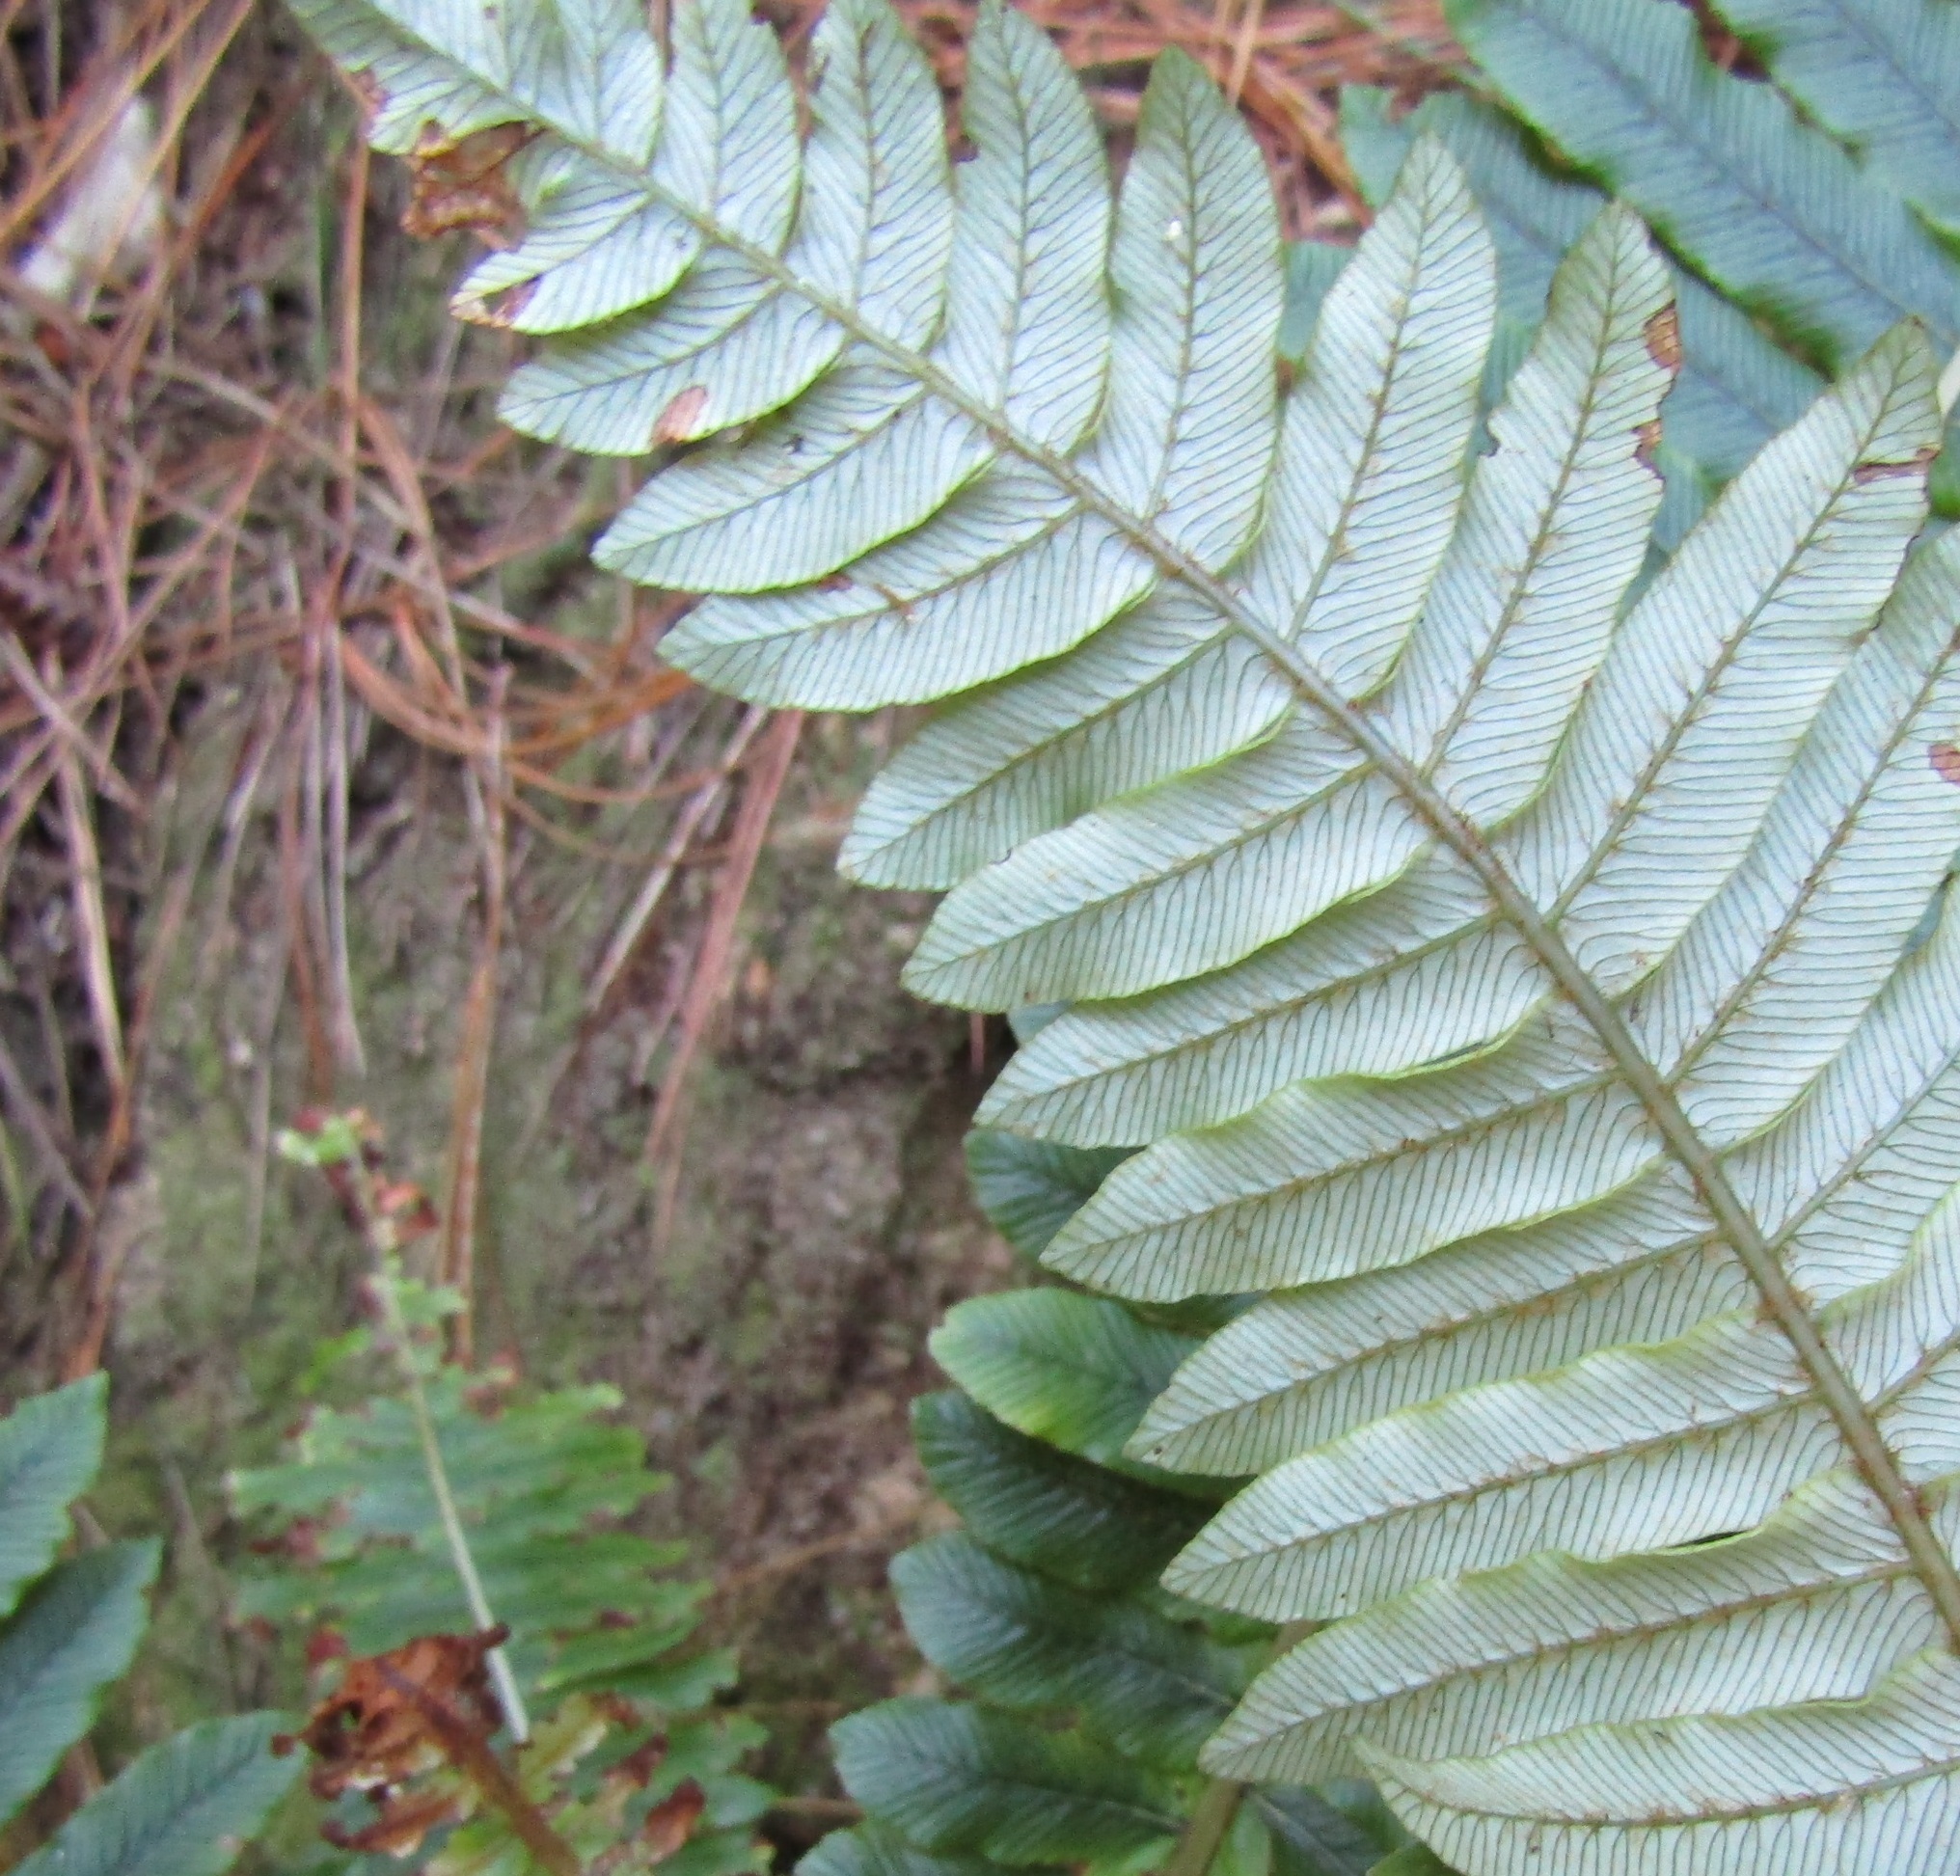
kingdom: Plantae
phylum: Tracheophyta
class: Polypodiopsida
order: Polypodiales
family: Blechnaceae
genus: Lomaria
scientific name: Lomaria discolor
